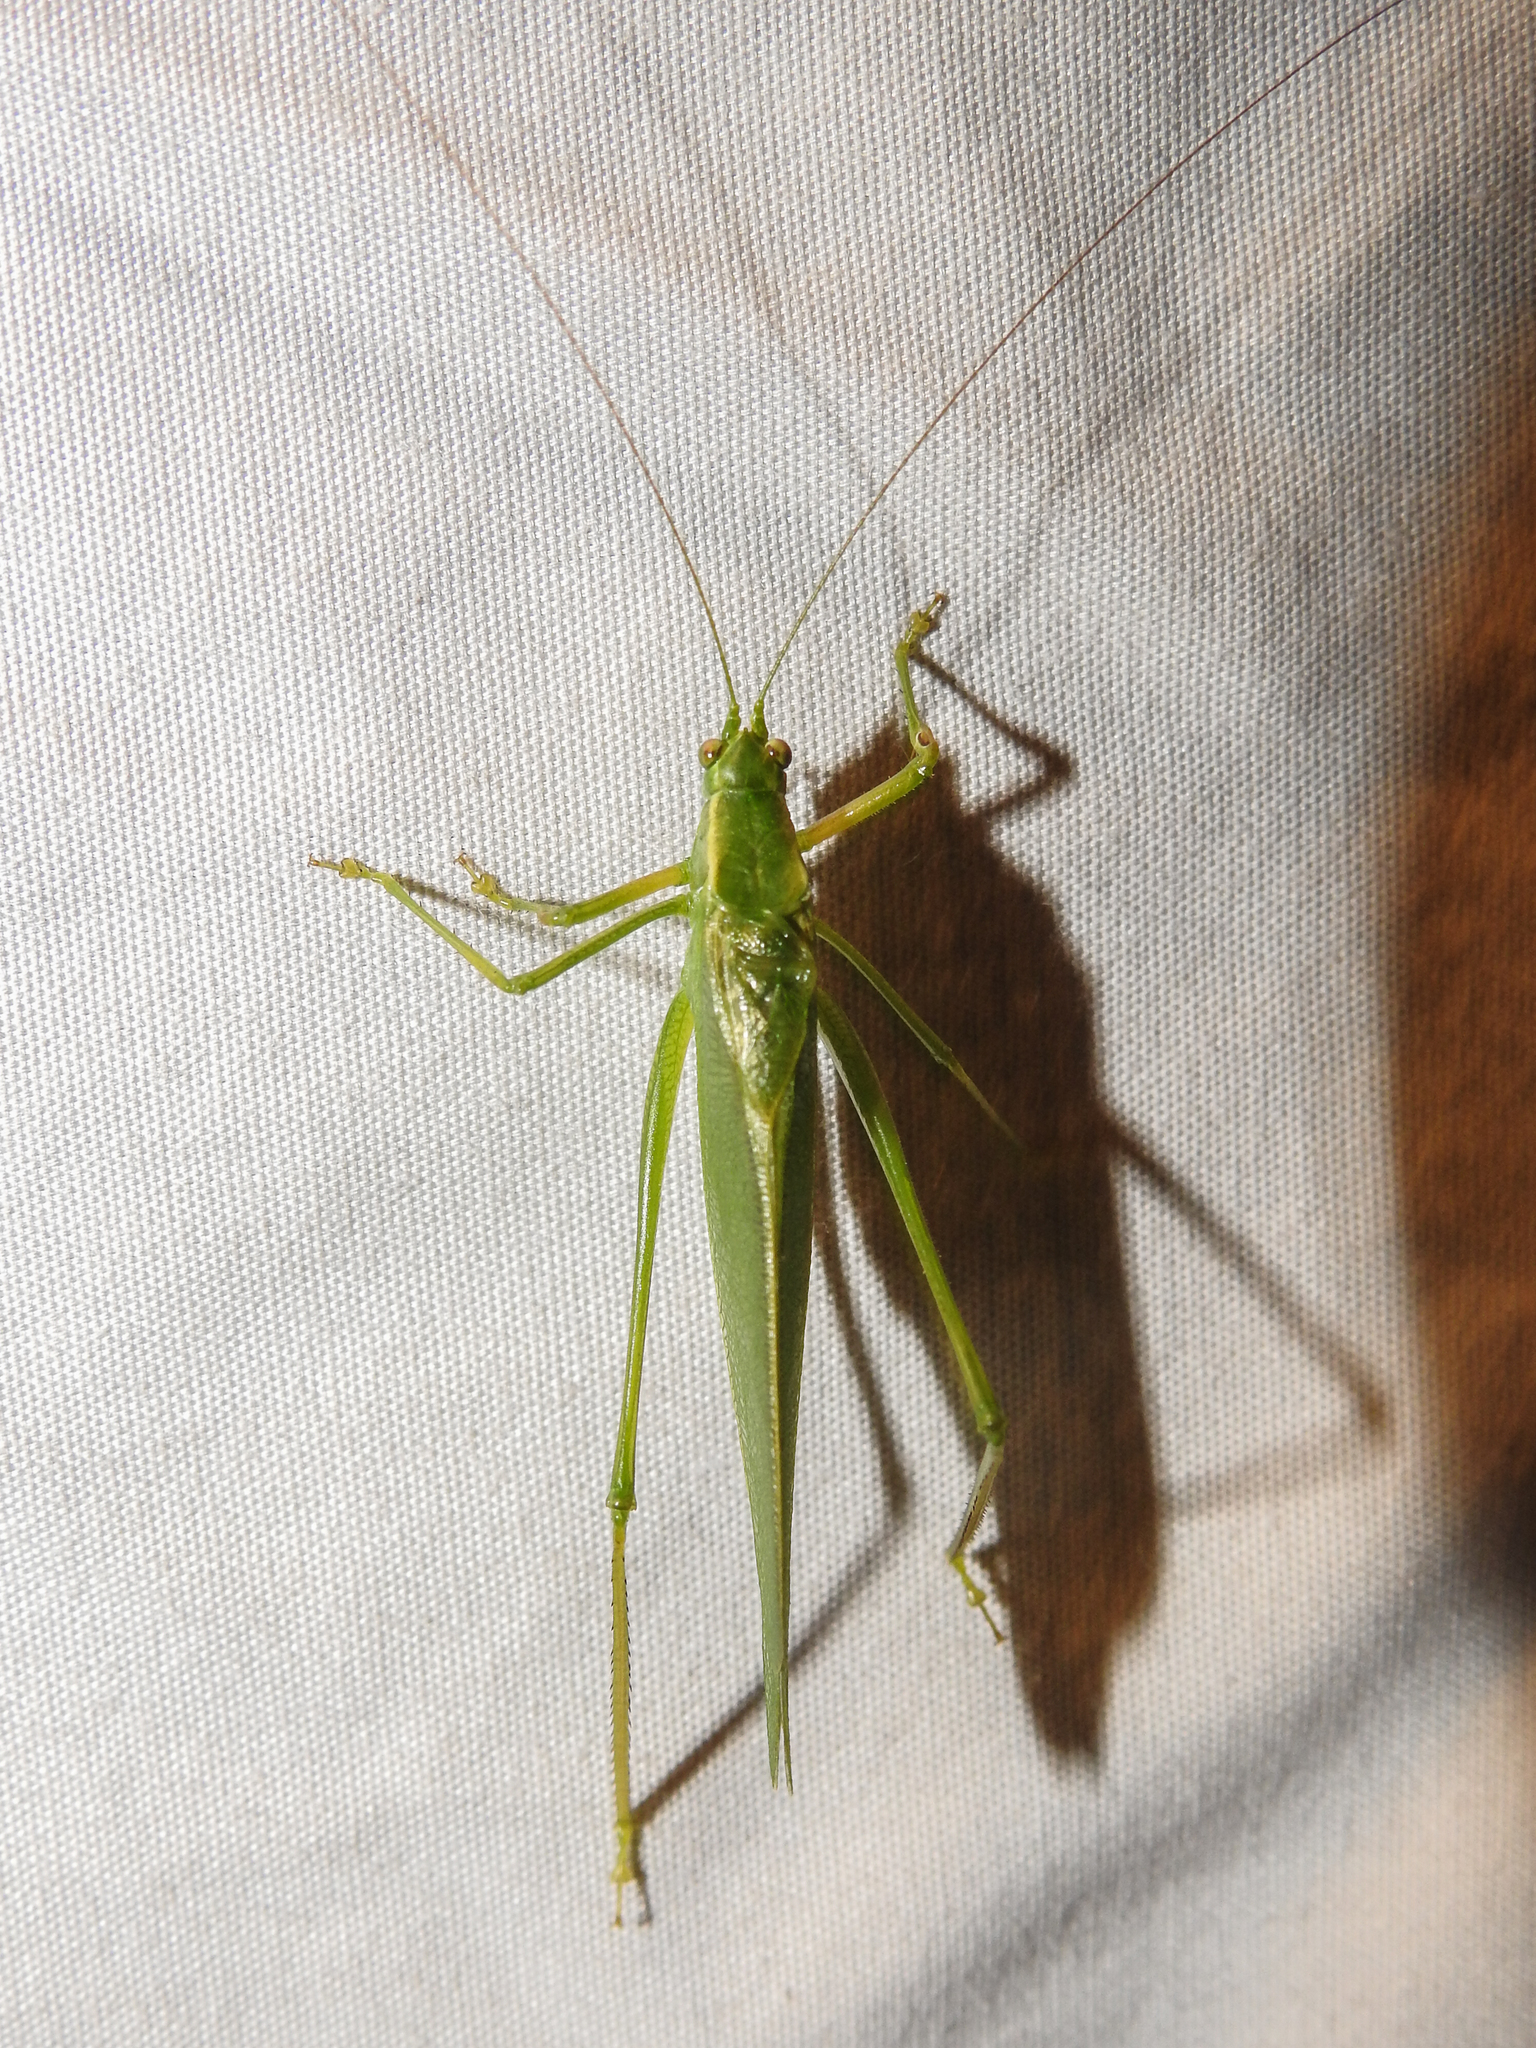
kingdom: Animalia
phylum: Arthropoda
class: Insecta
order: Orthoptera
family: Tettigoniidae
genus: Scudderia
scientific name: Scudderia septentrionalis
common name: Northern bush-katydid
